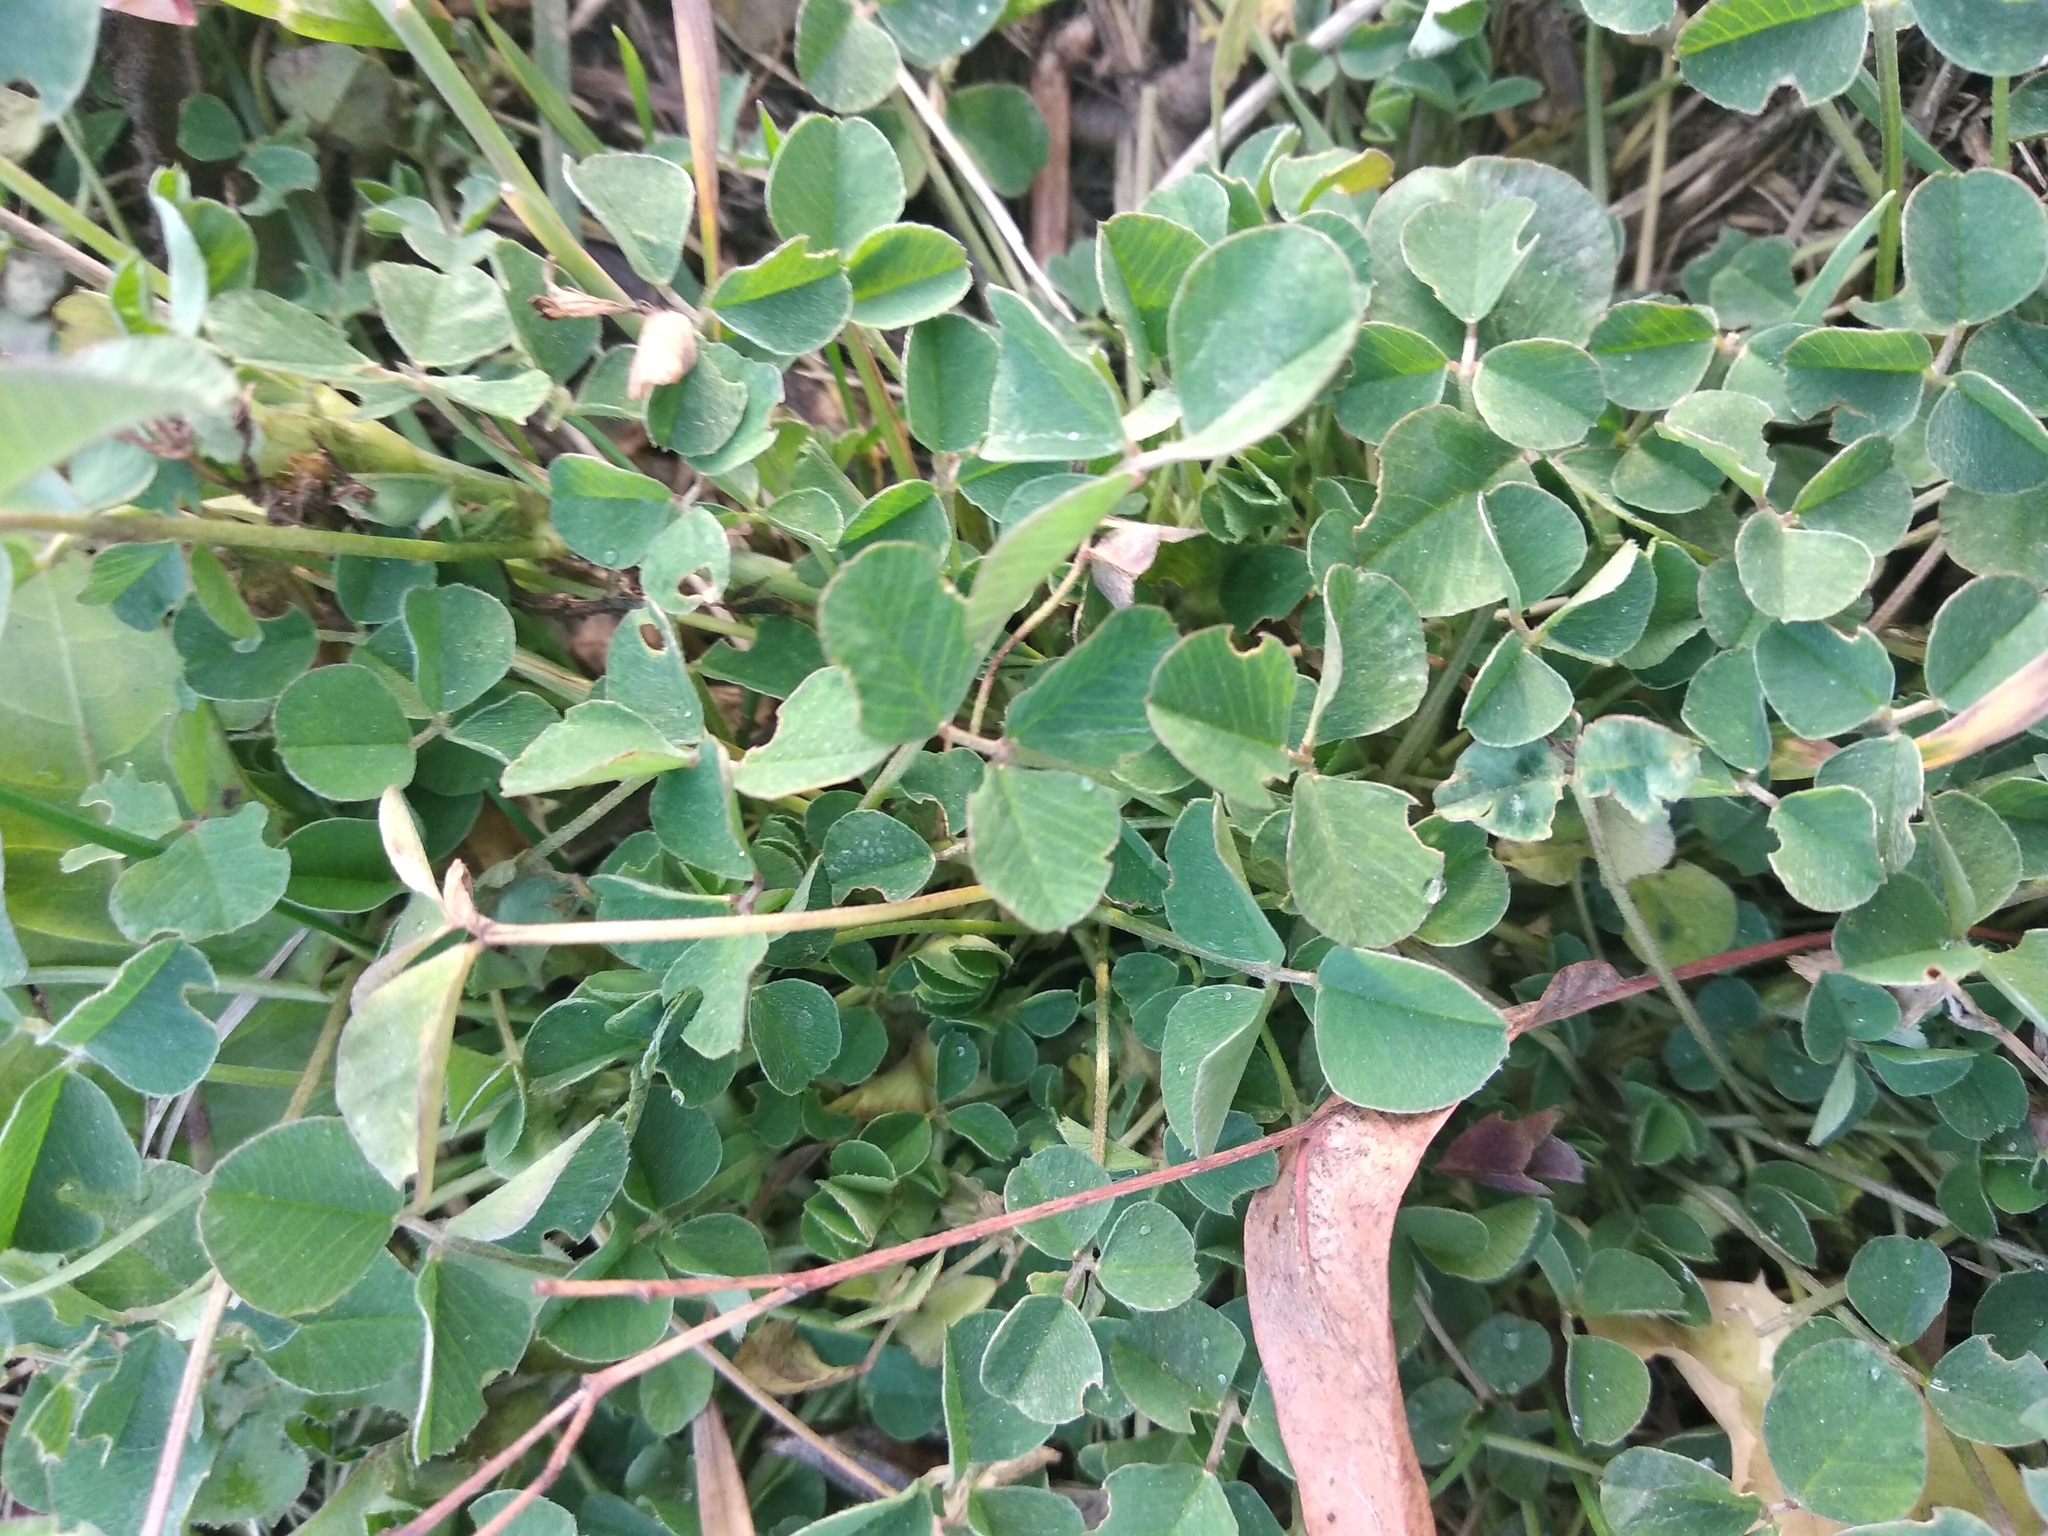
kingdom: Plantae
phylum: Tracheophyta
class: Magnoliopsida
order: Fabales
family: Fabaceae
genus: Medicago
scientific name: Medicago lupulina
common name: Black medick
